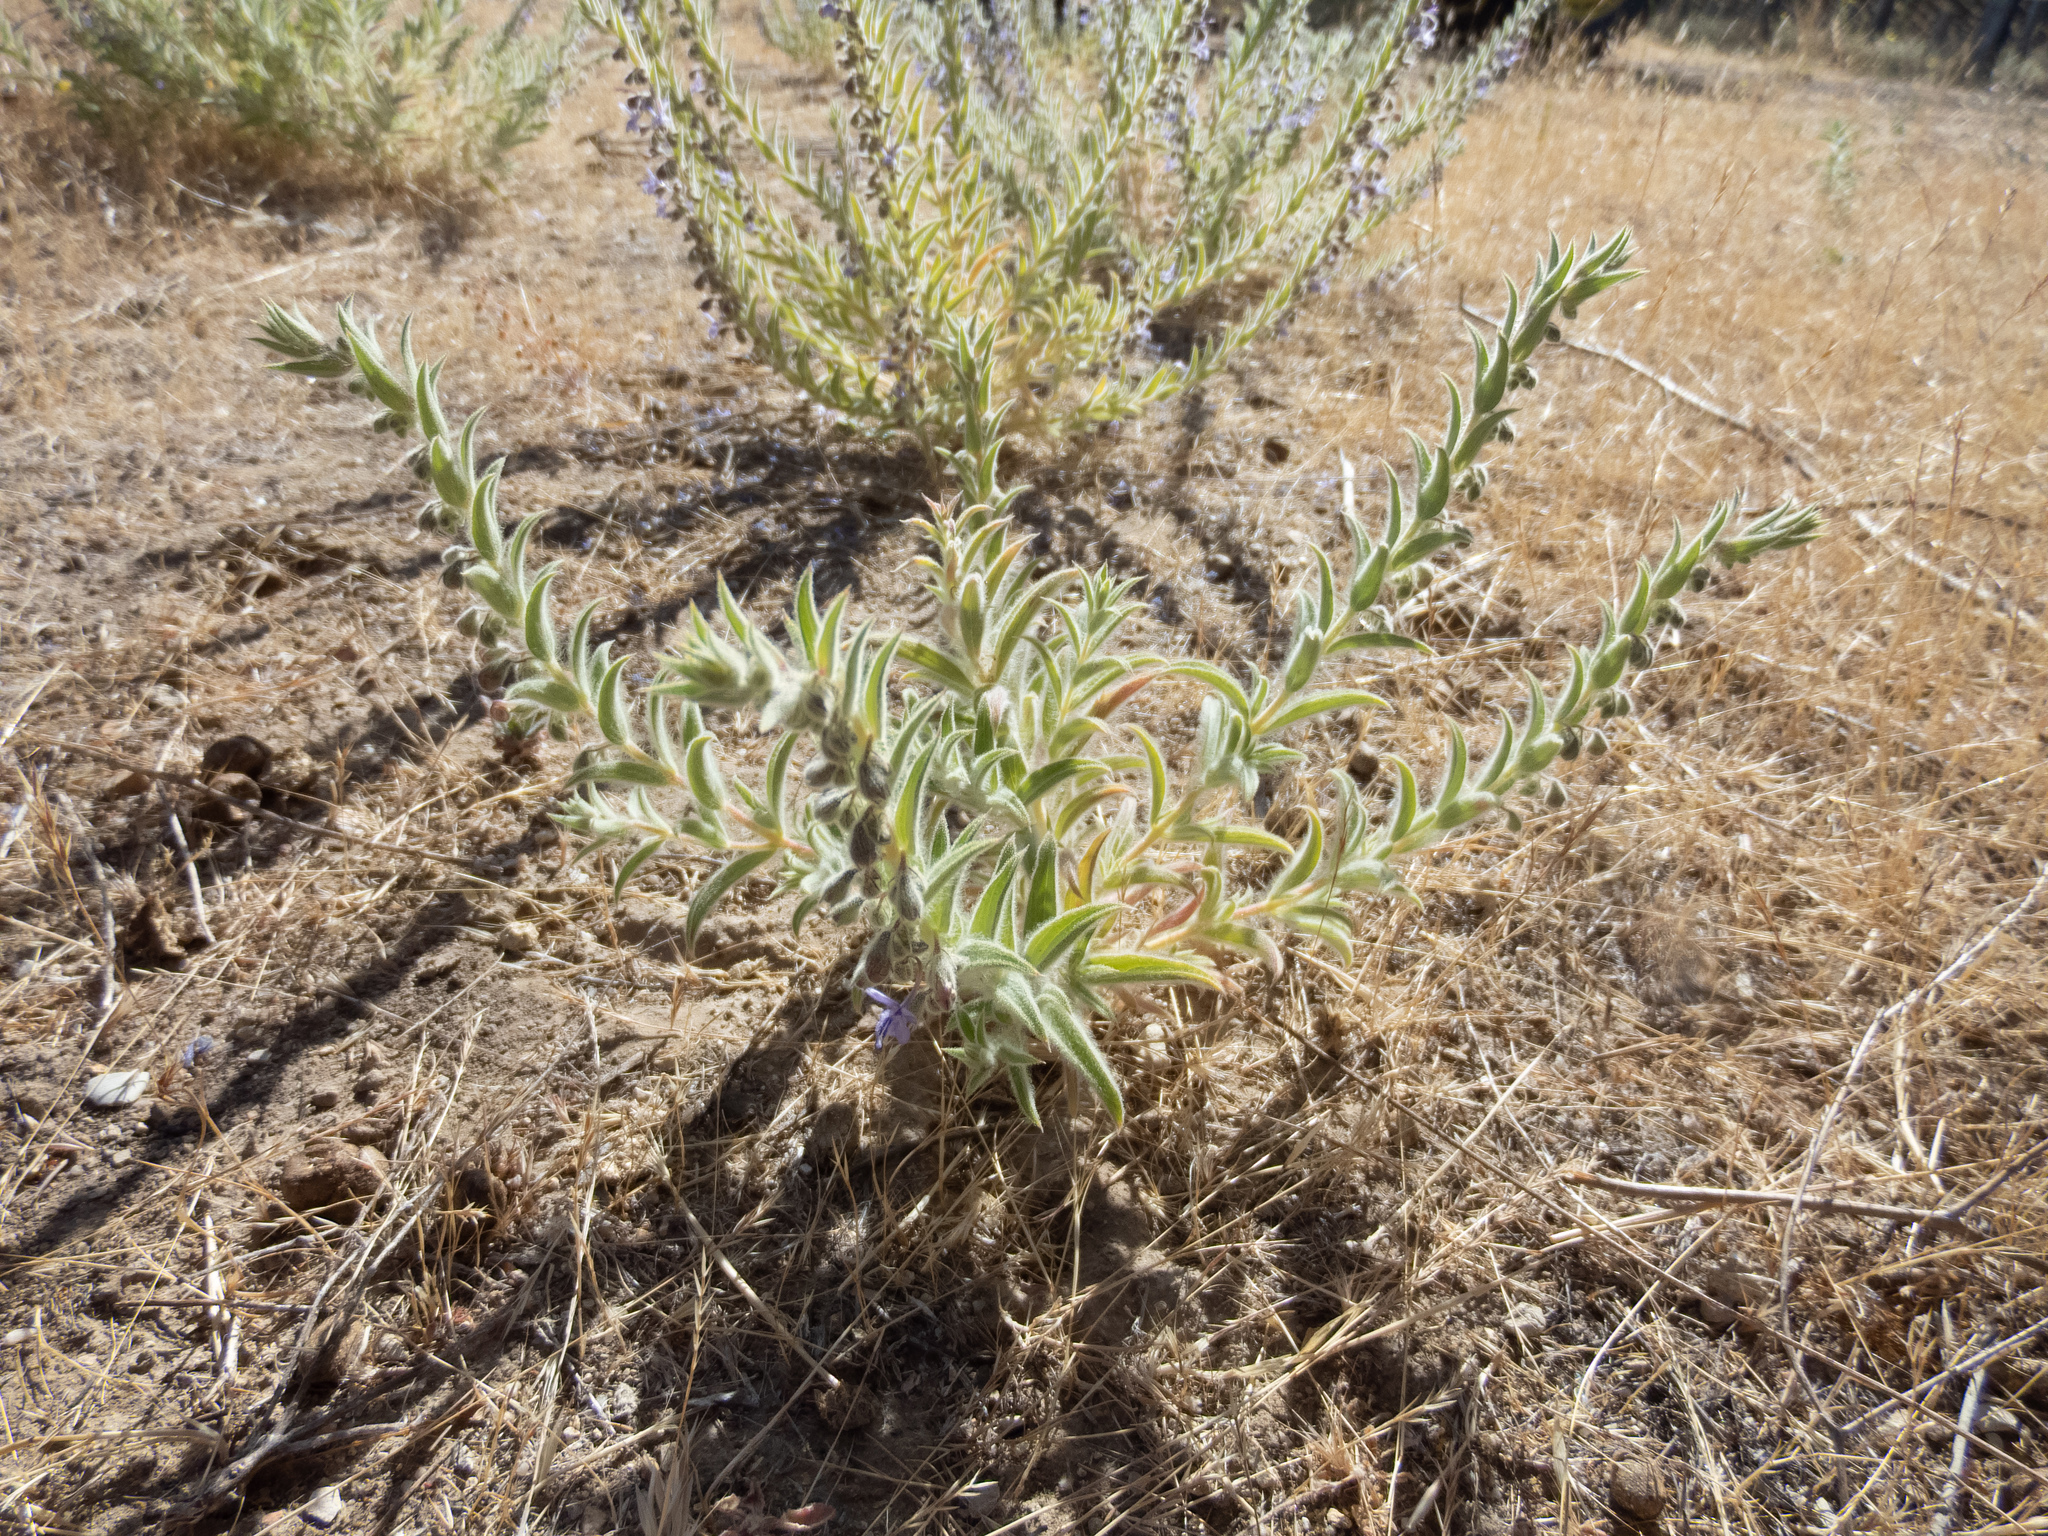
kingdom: Plantae
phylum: Tracheophyta
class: Magnoliopsida
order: Lamiales
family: Lamiaceae
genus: Trichostema
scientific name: Trichostema lanceolatum
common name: Vinegar-weed
